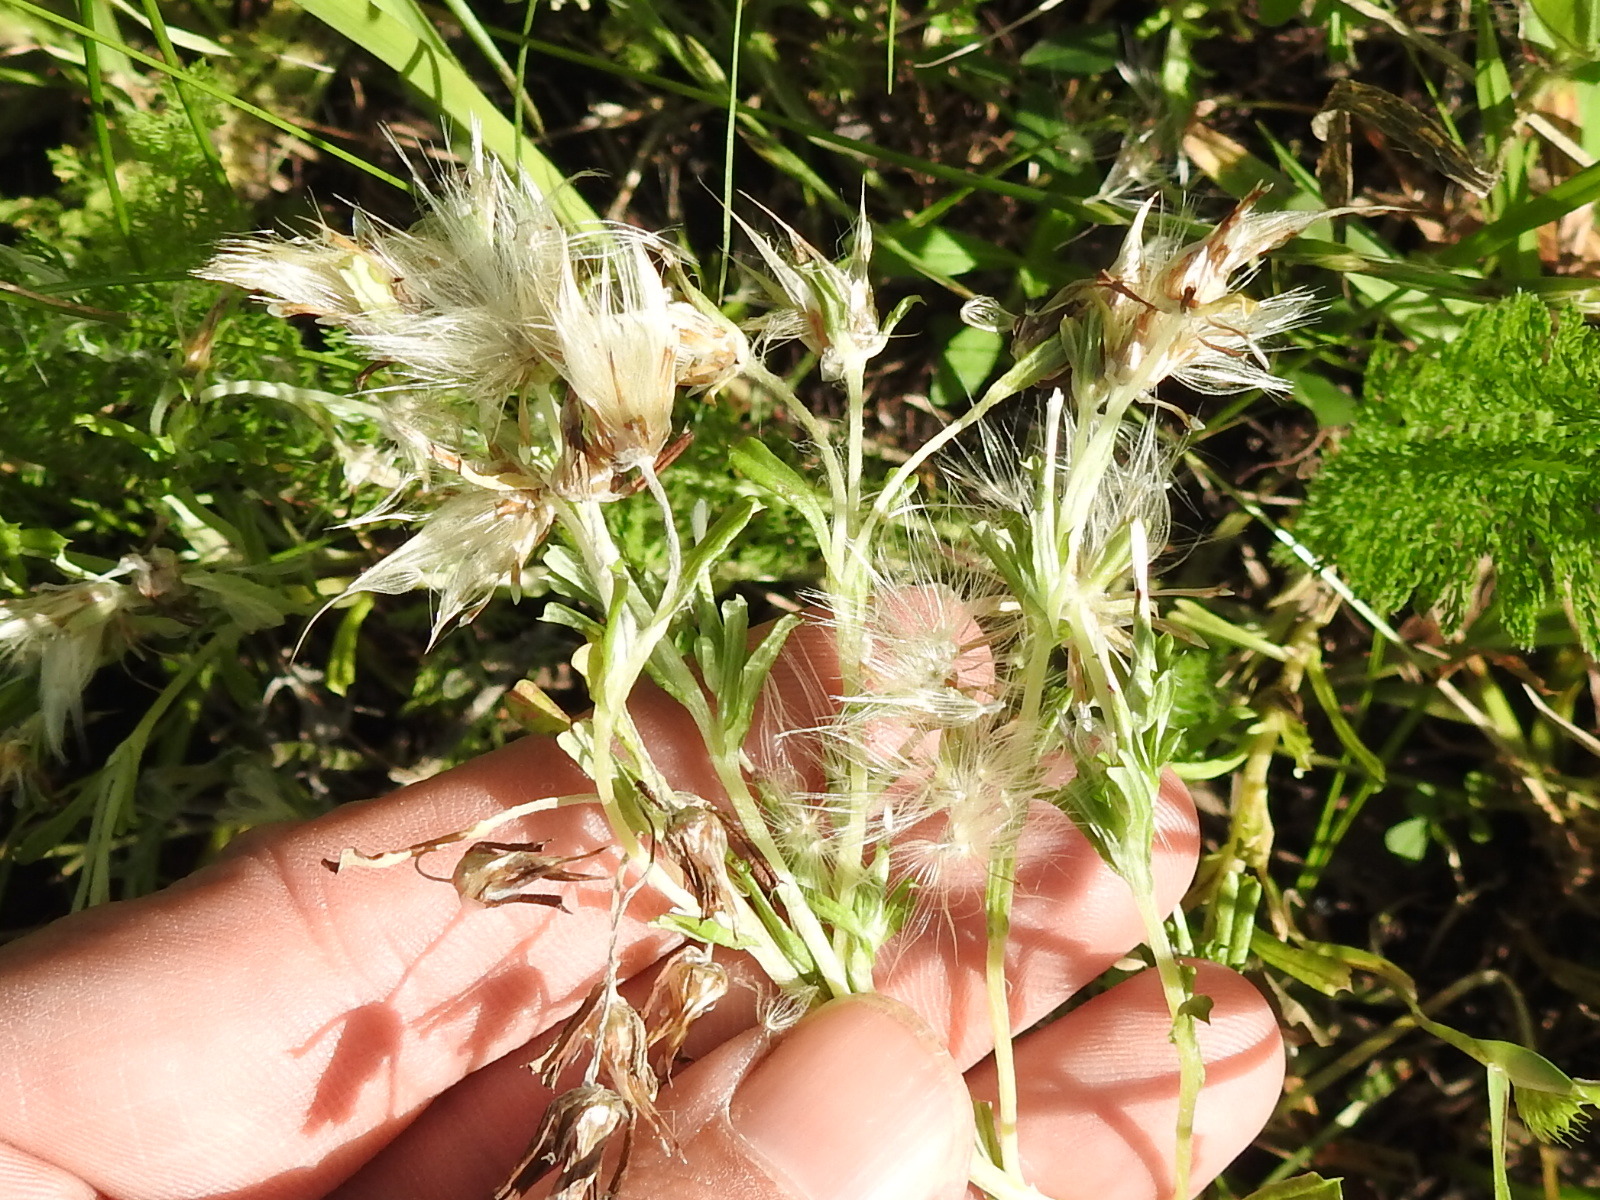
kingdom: Plantae
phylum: Tracheophyta
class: Magnoliopsida
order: Asterales
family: Asteraceae
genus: Facelis
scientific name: Facelis retusa
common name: Annual trampweed
